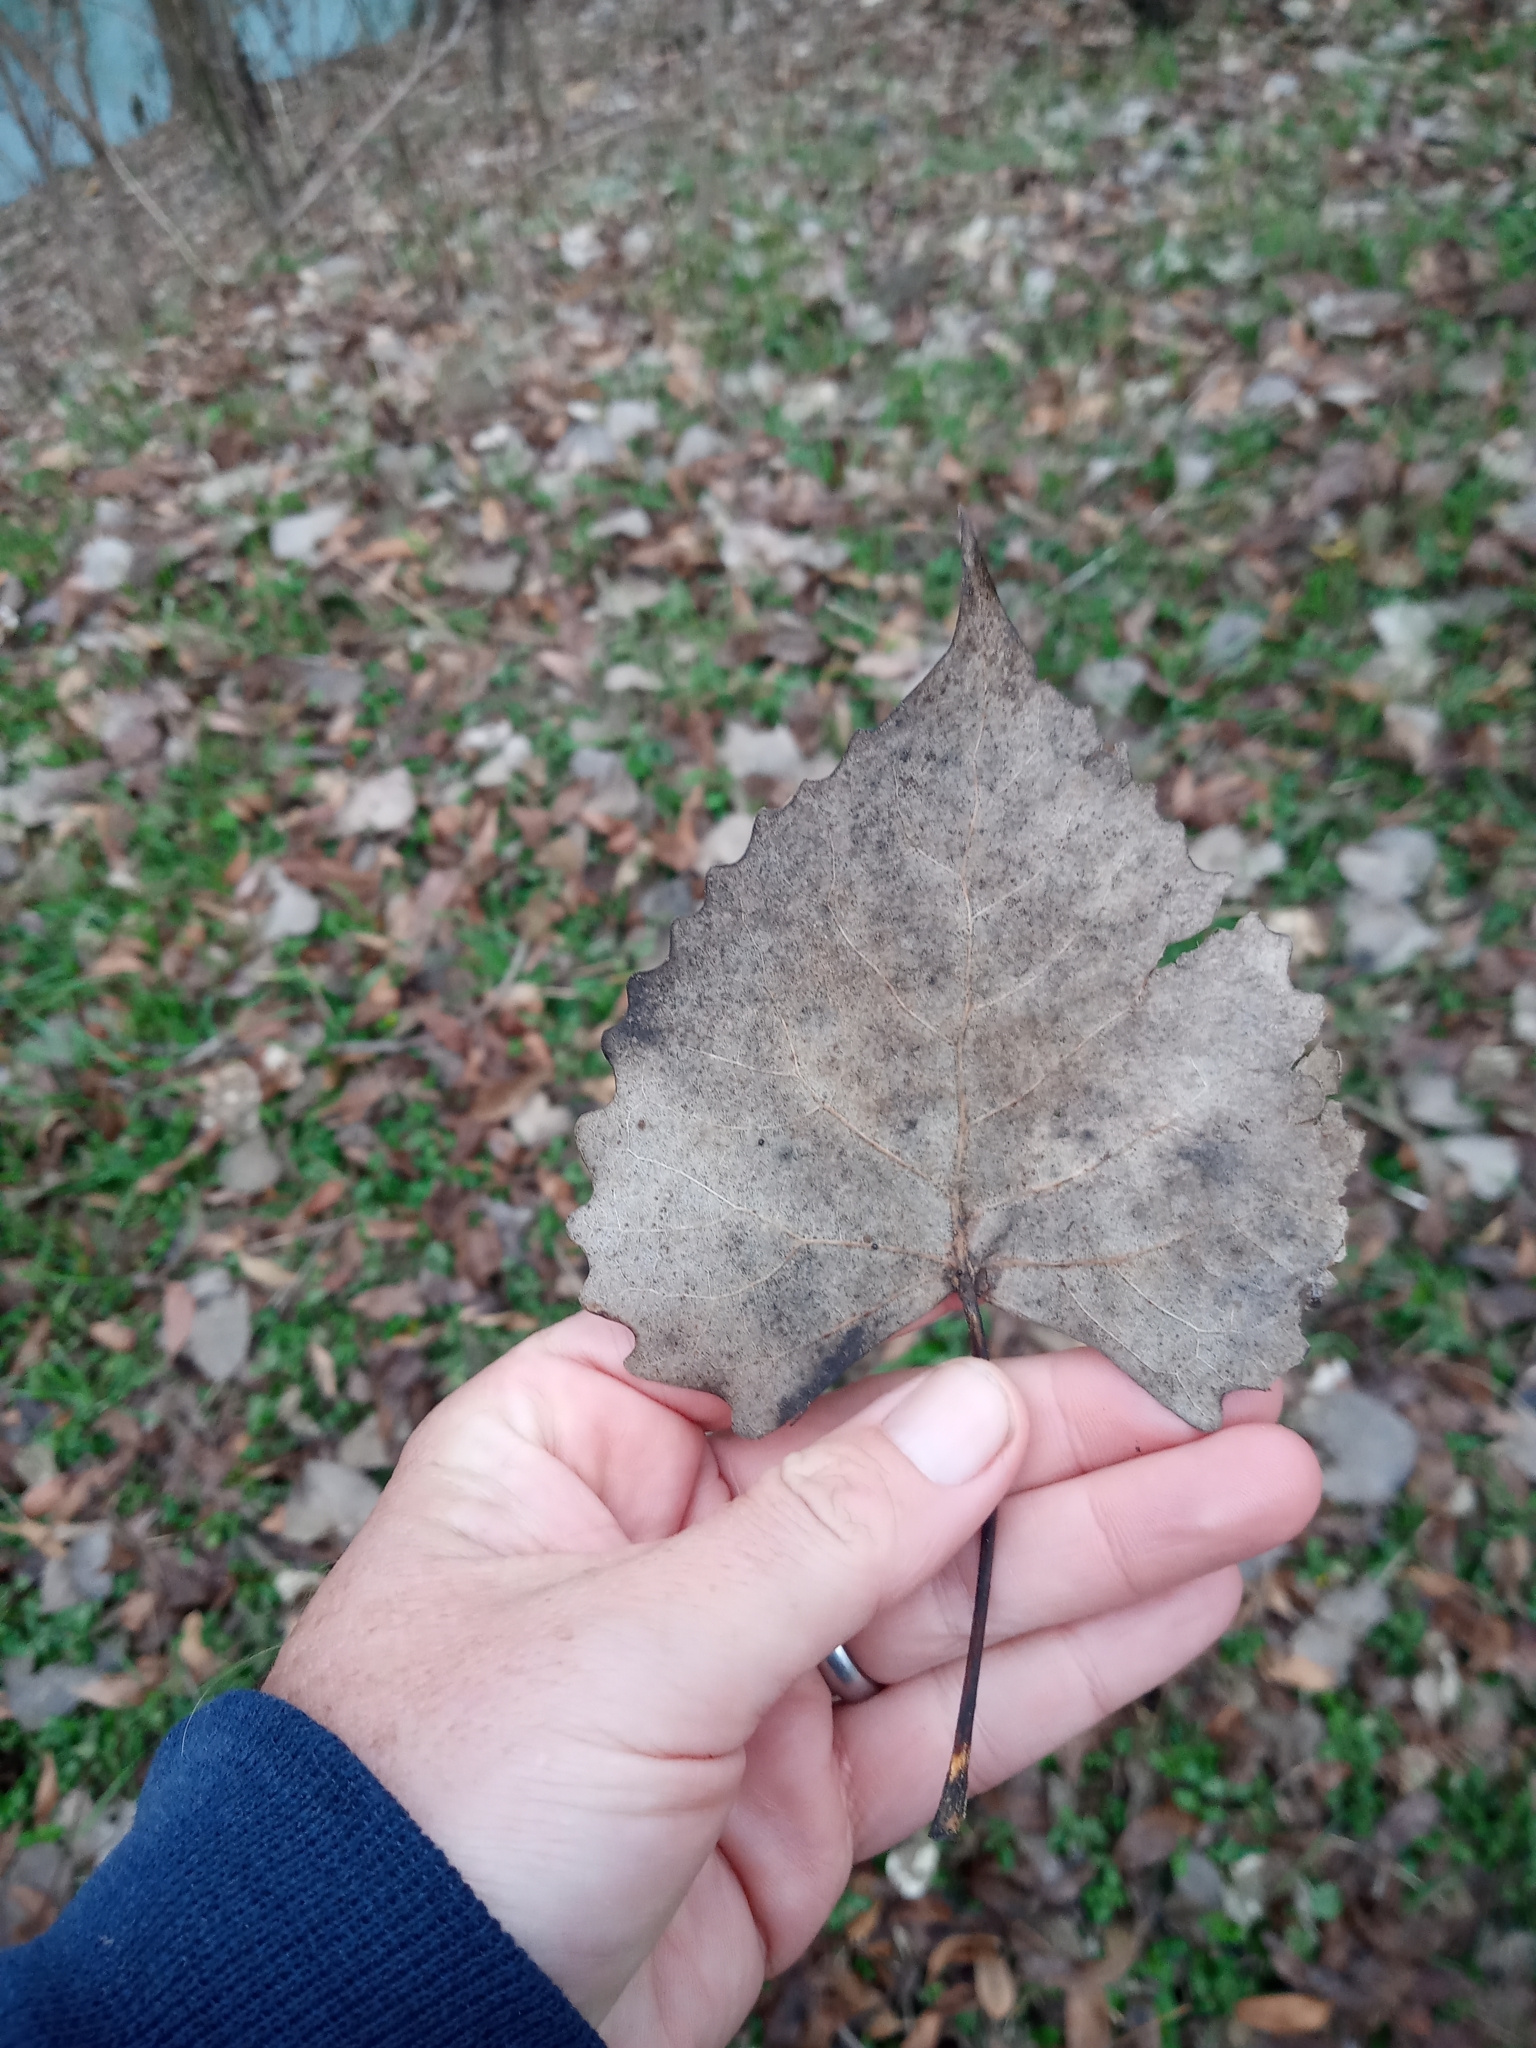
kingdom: Plantae
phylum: Tracheophyta
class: Magnoliopsida
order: Malpighiales
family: Salicaceae
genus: Populus
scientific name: Populus deltoides
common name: Eastern cottonwood
